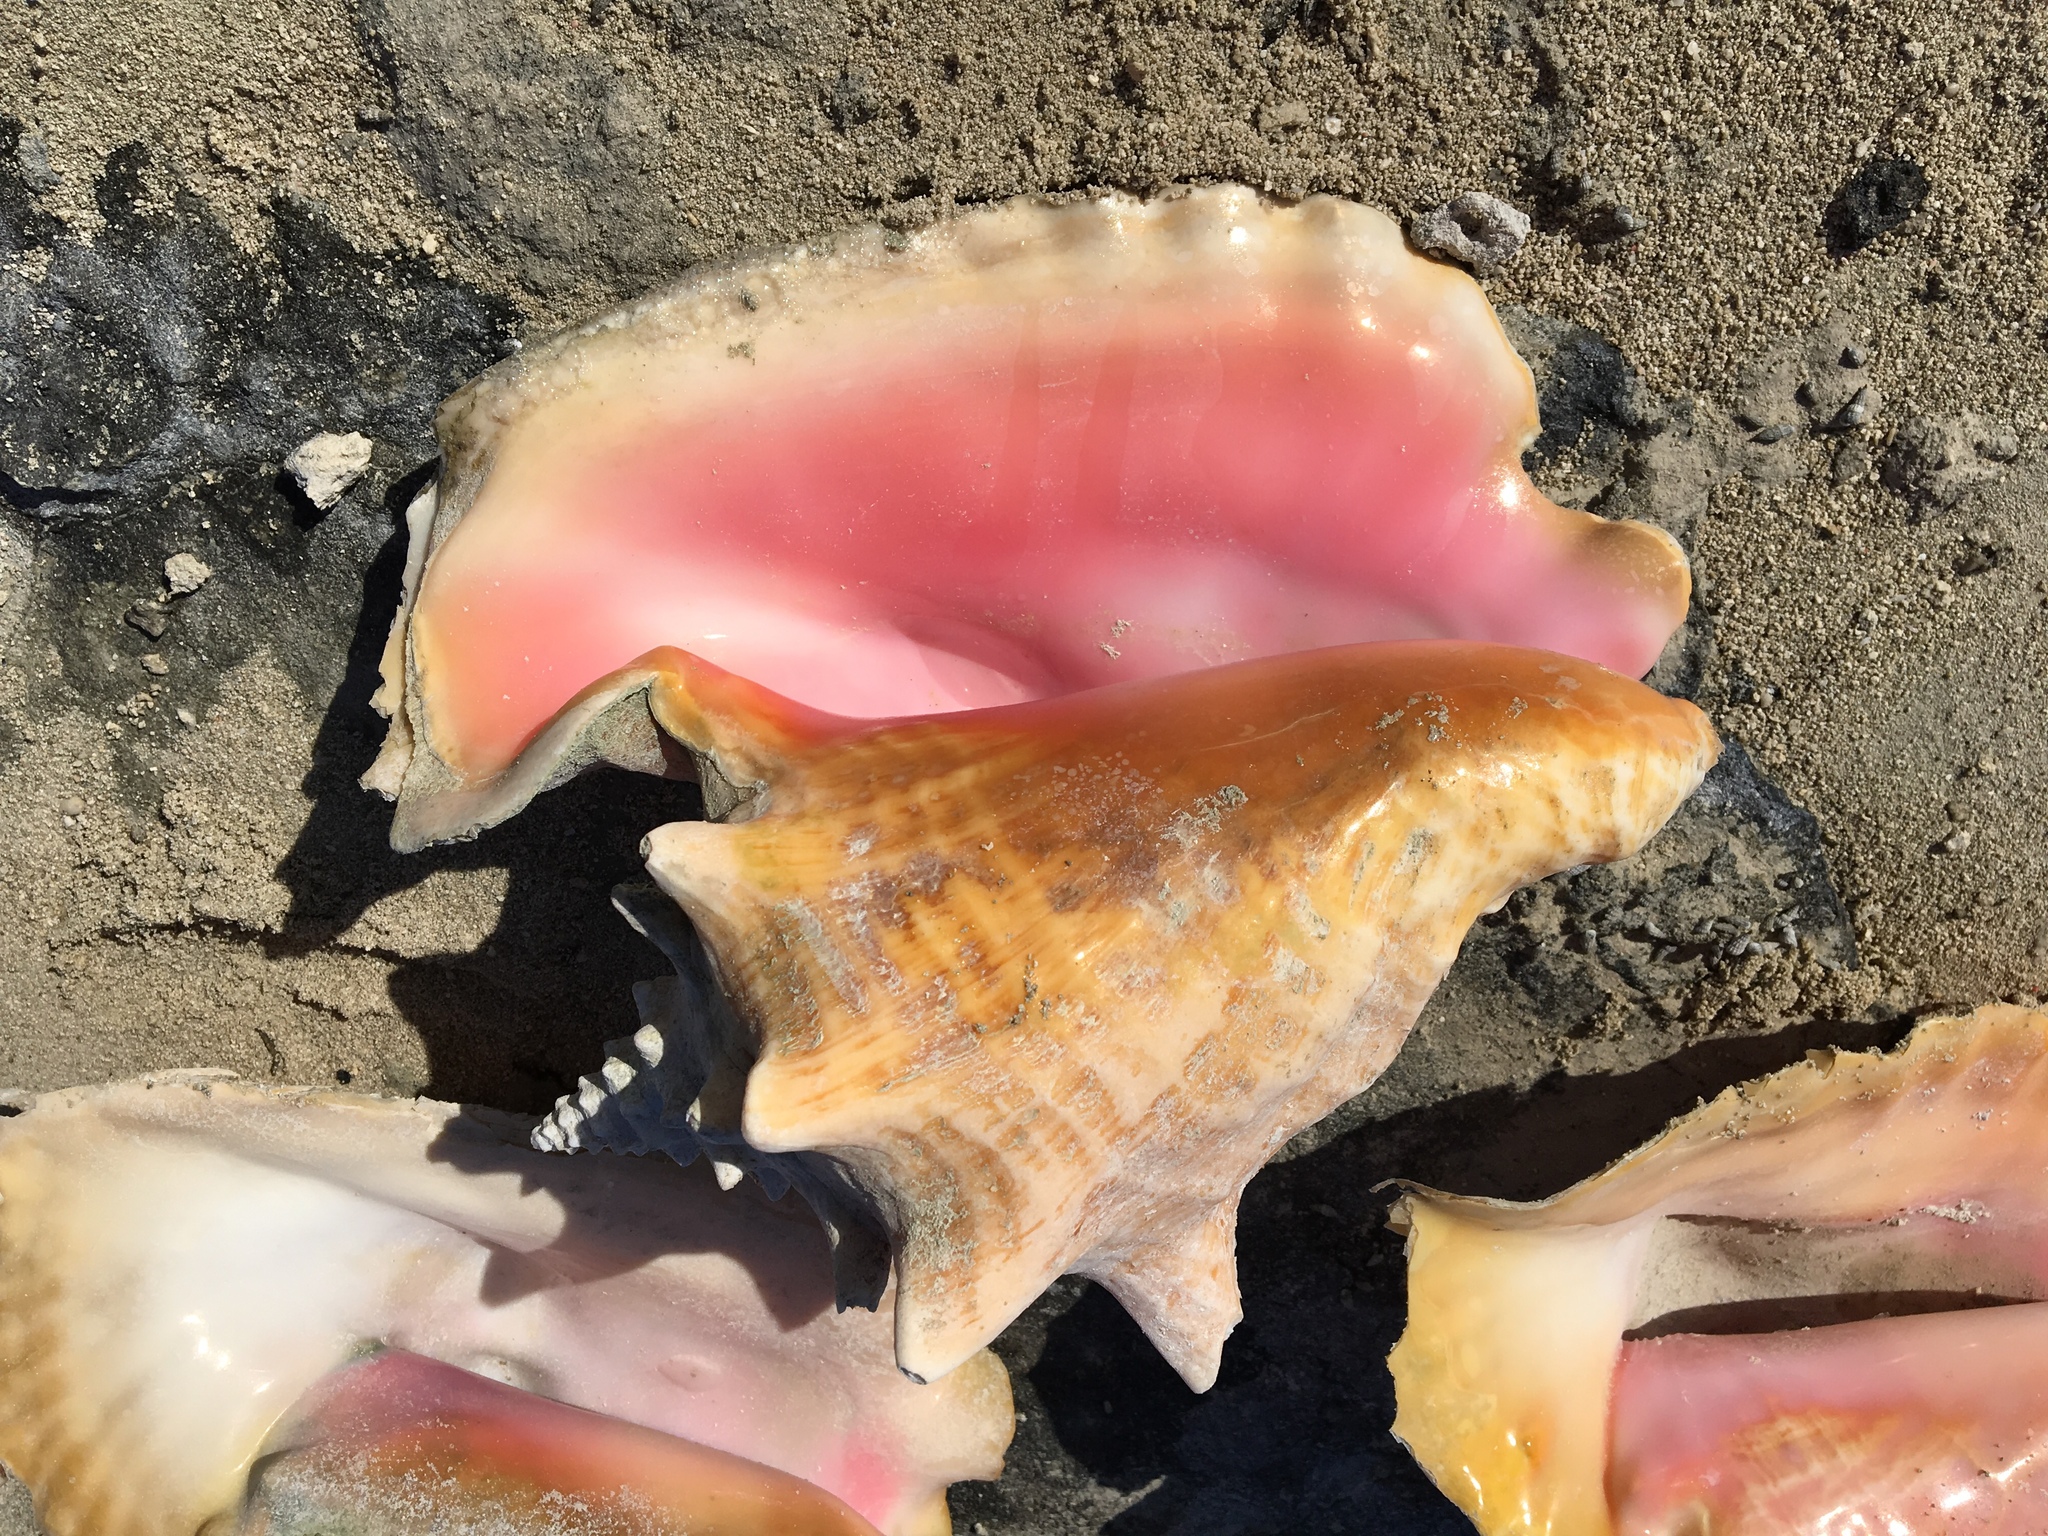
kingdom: Animalia
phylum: Mollusca
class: Gastropoda
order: Littorinimorpha
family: Strombidae
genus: Aliger
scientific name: Aliger gigas
